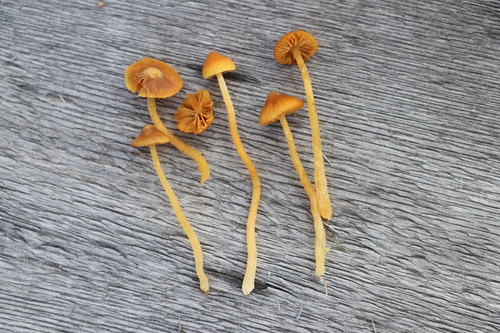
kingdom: Fungi
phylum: Basidiomycota
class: Agaricomycetes
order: Agaricales
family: Hymenogastraceae
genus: Galerina
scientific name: Galerina sphagnorum
